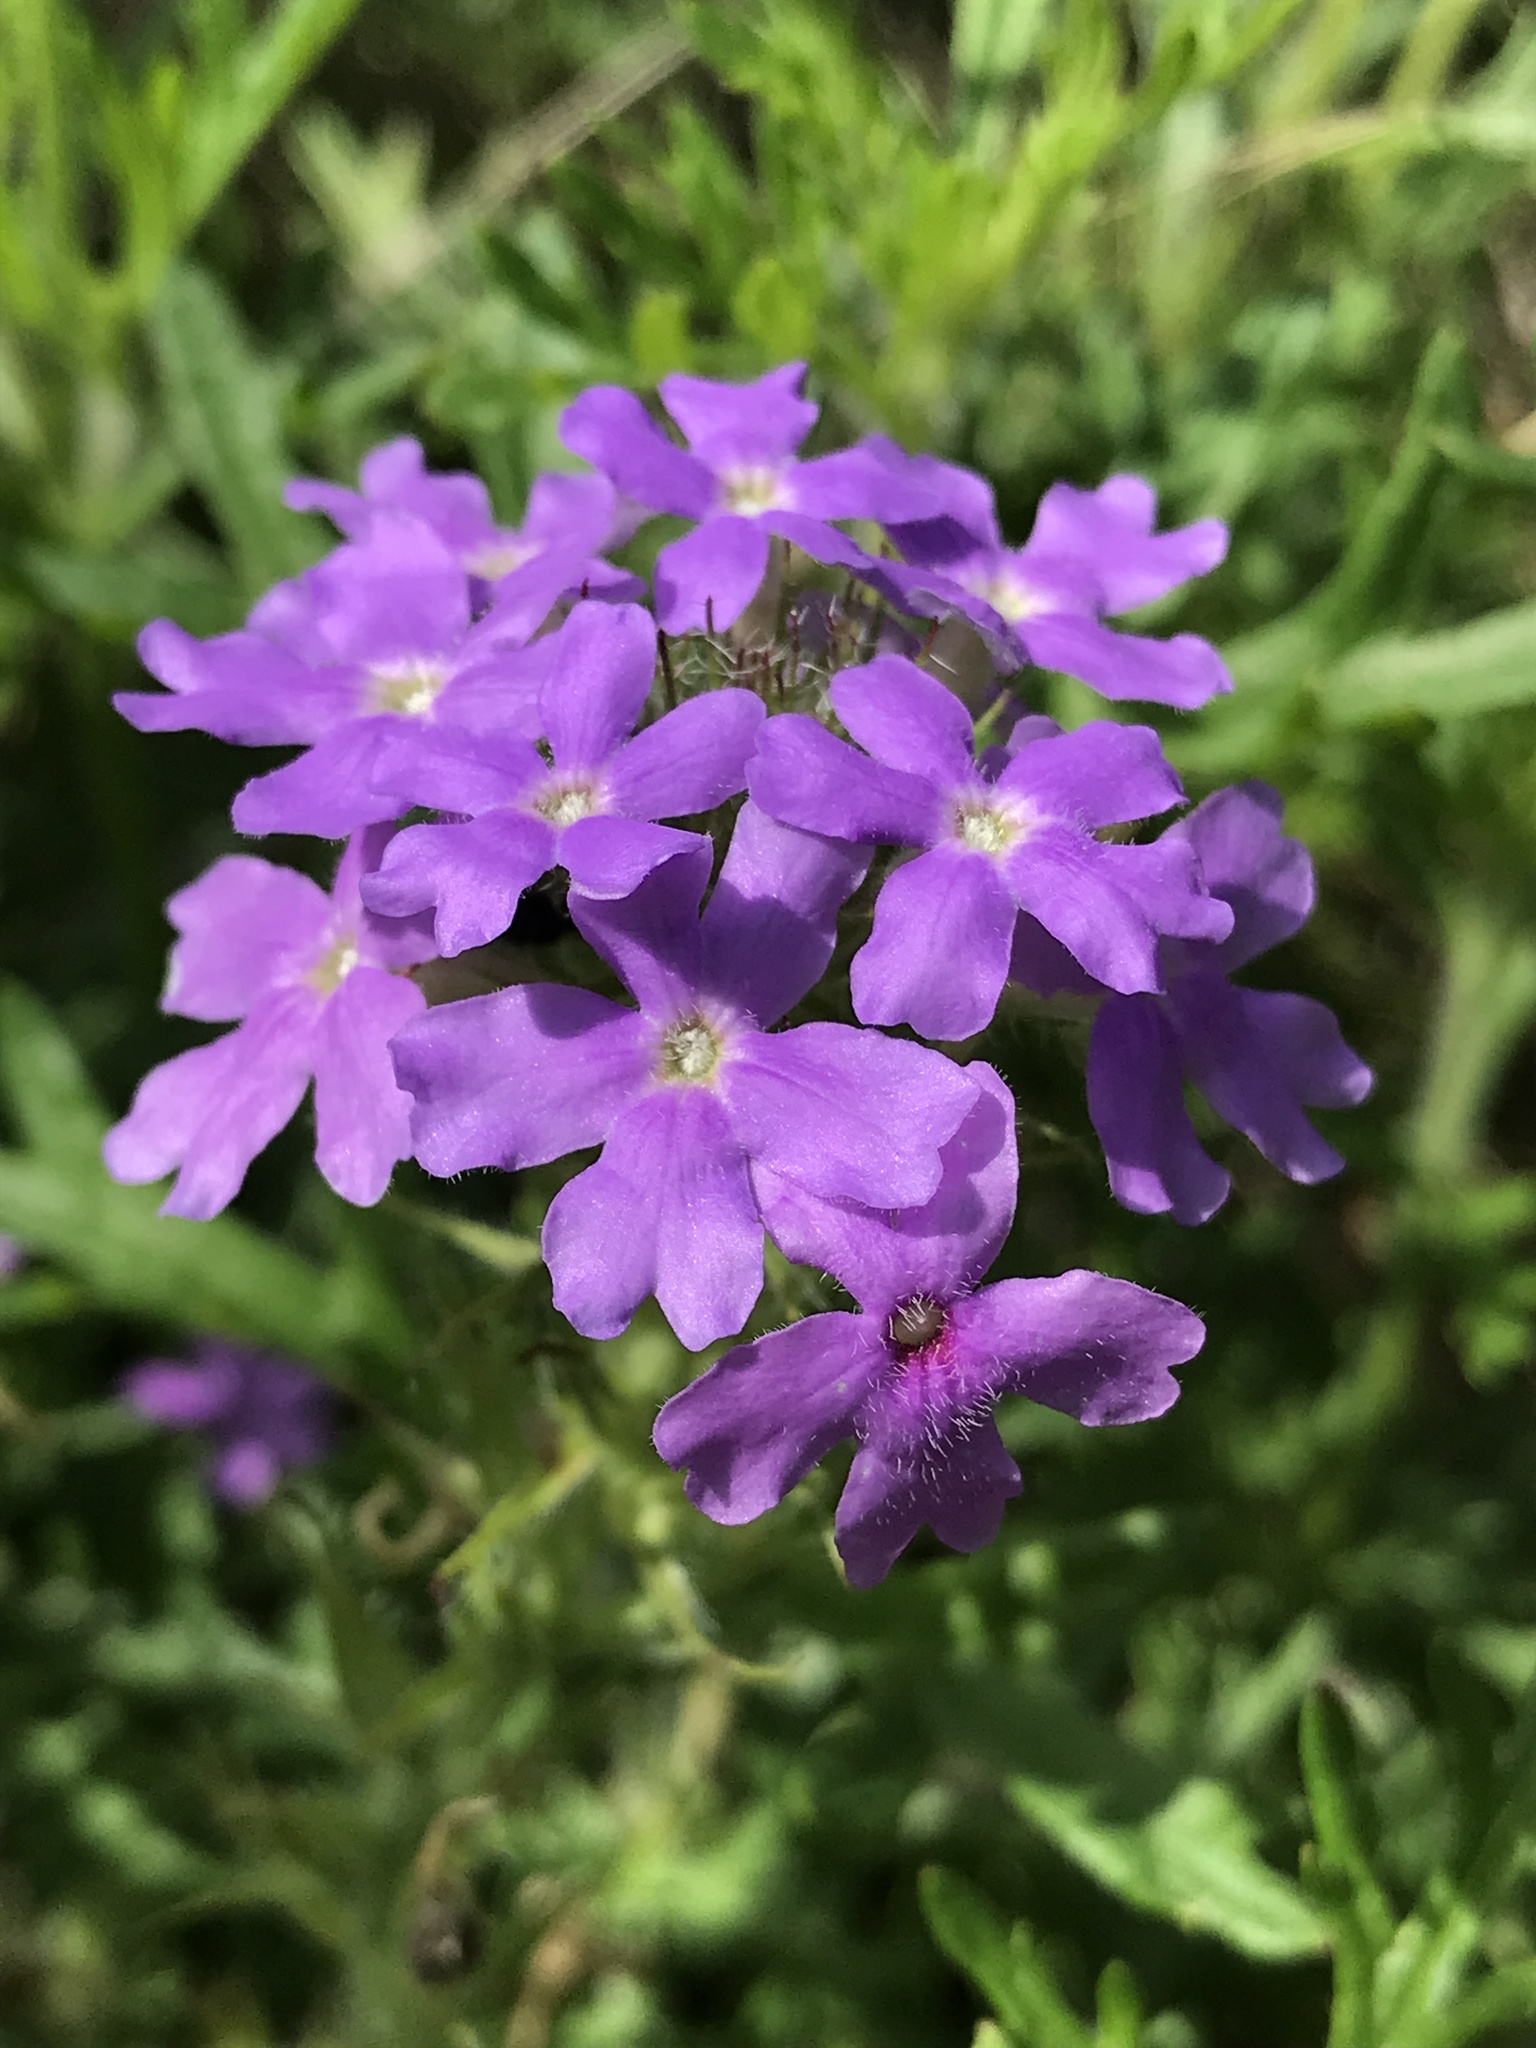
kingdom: Plantae
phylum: Tracheophyta
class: Magnoliopsida
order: Lamiales
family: Verbenaceae
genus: Verbena
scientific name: Verbena bipinnatifida
